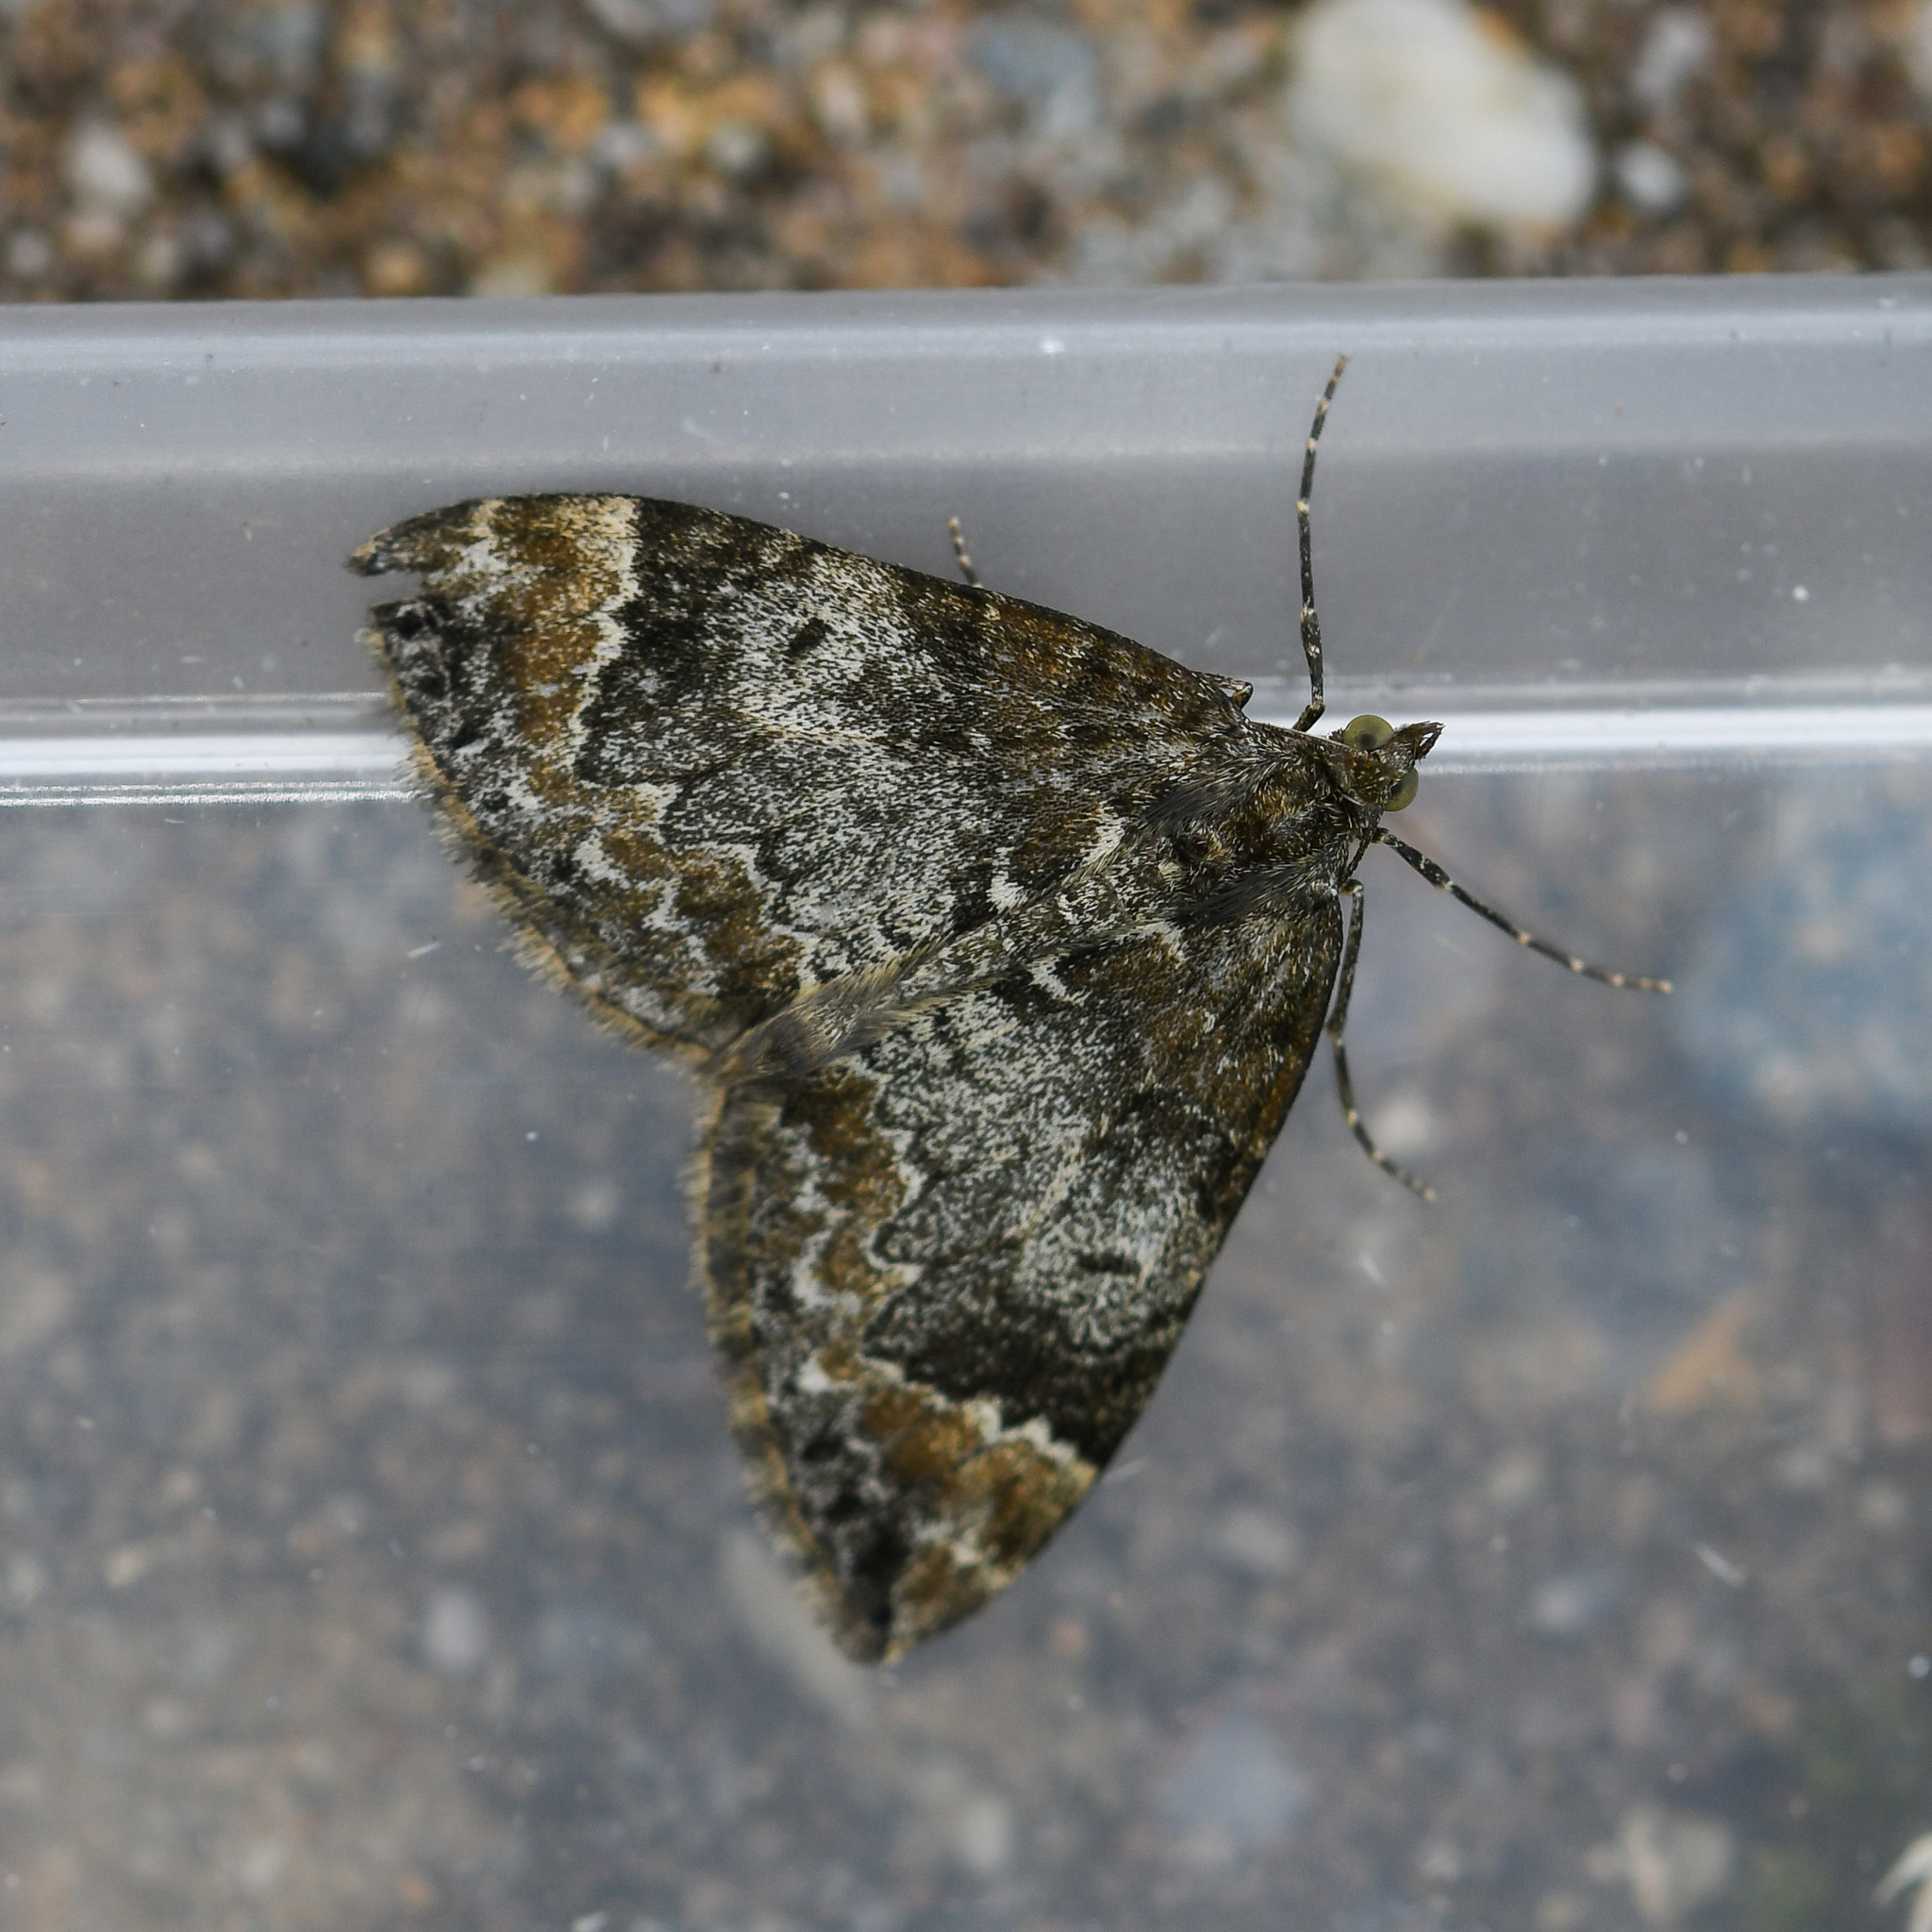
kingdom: Animalia
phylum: Arthropoda
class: Insecta
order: Lepidoptera
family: Geometridae
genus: Dysstroma
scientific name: Dysstroma truncata
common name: Common marbled carpet
